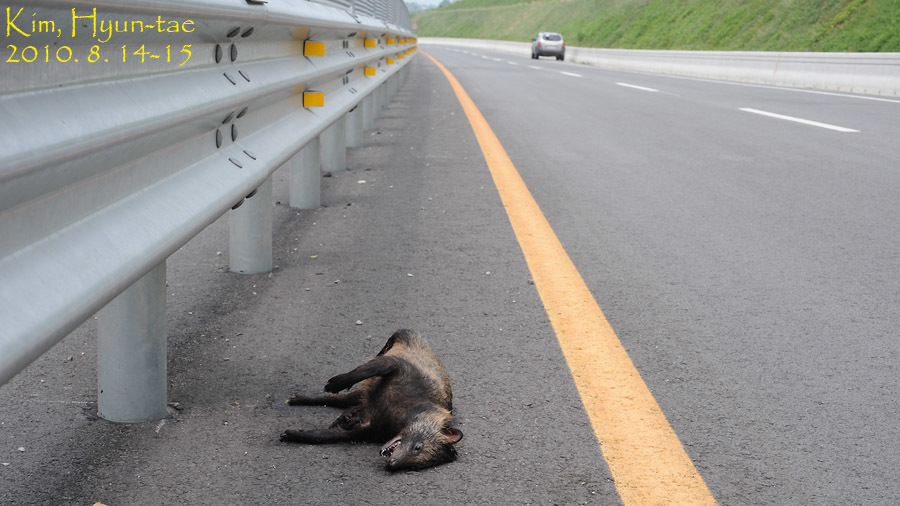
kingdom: Animalia
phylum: Chordata
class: Mammalia
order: Carnivora
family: Canidae
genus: Nyctereutes
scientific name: Nyctereutes procyonoides
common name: Raccoon dog
